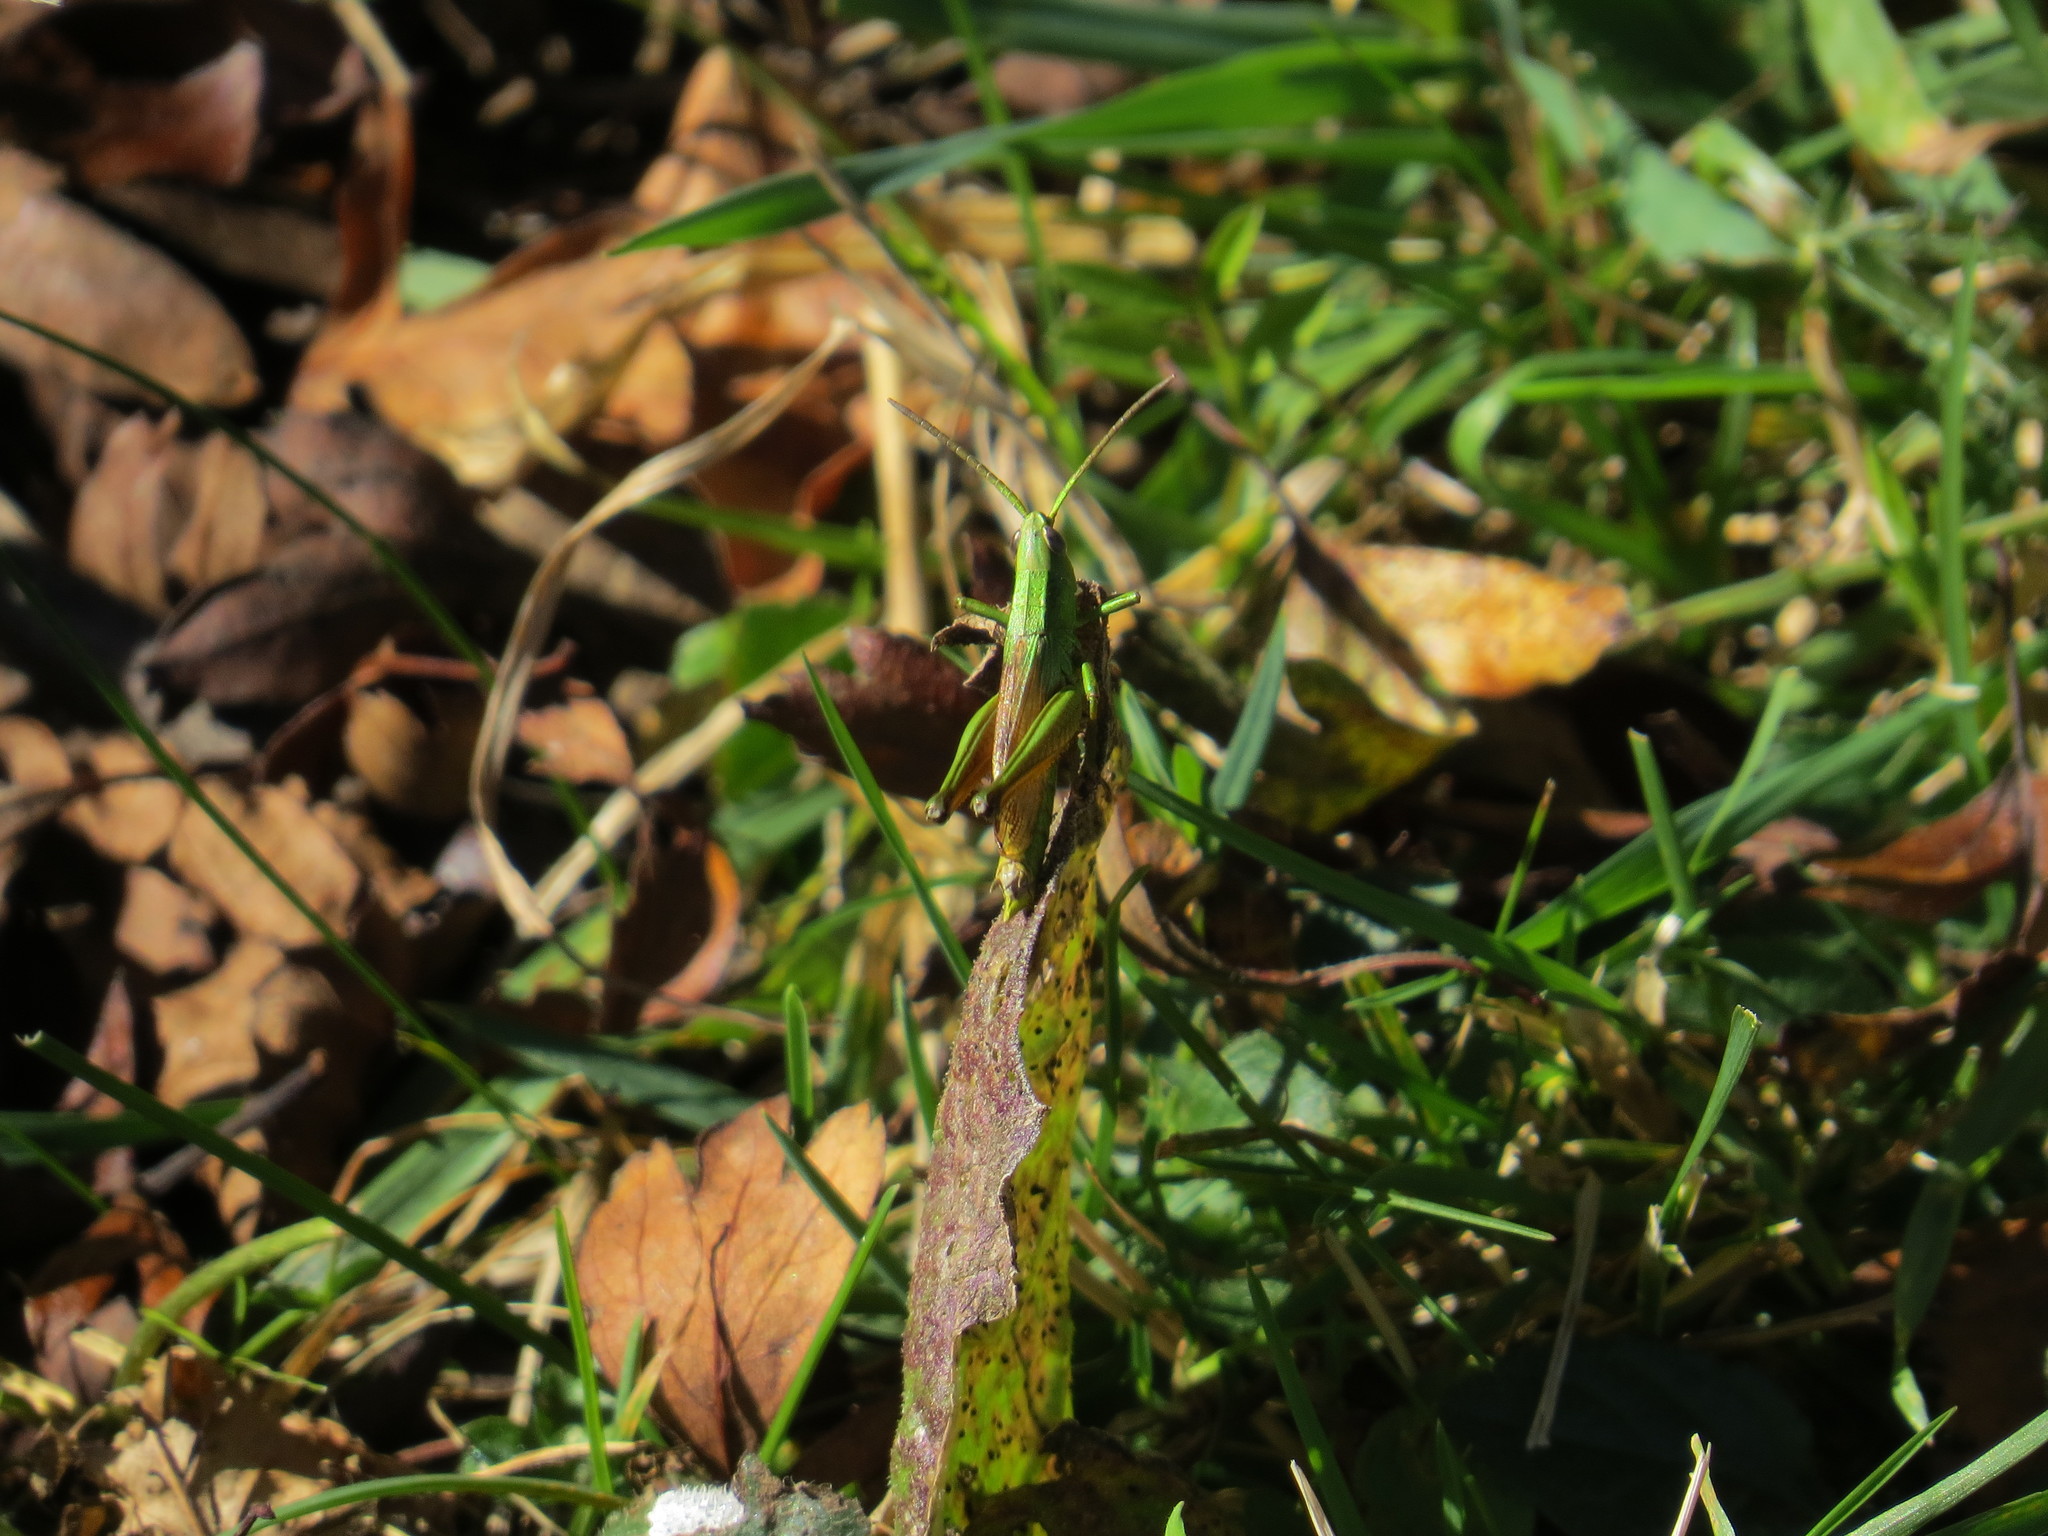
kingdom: Animalia
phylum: Arthropoda
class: Insecta
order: Orthoptera
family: Acrididae
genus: Euthystira
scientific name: Euthystira brachyptera
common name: Small gold grasshopper
